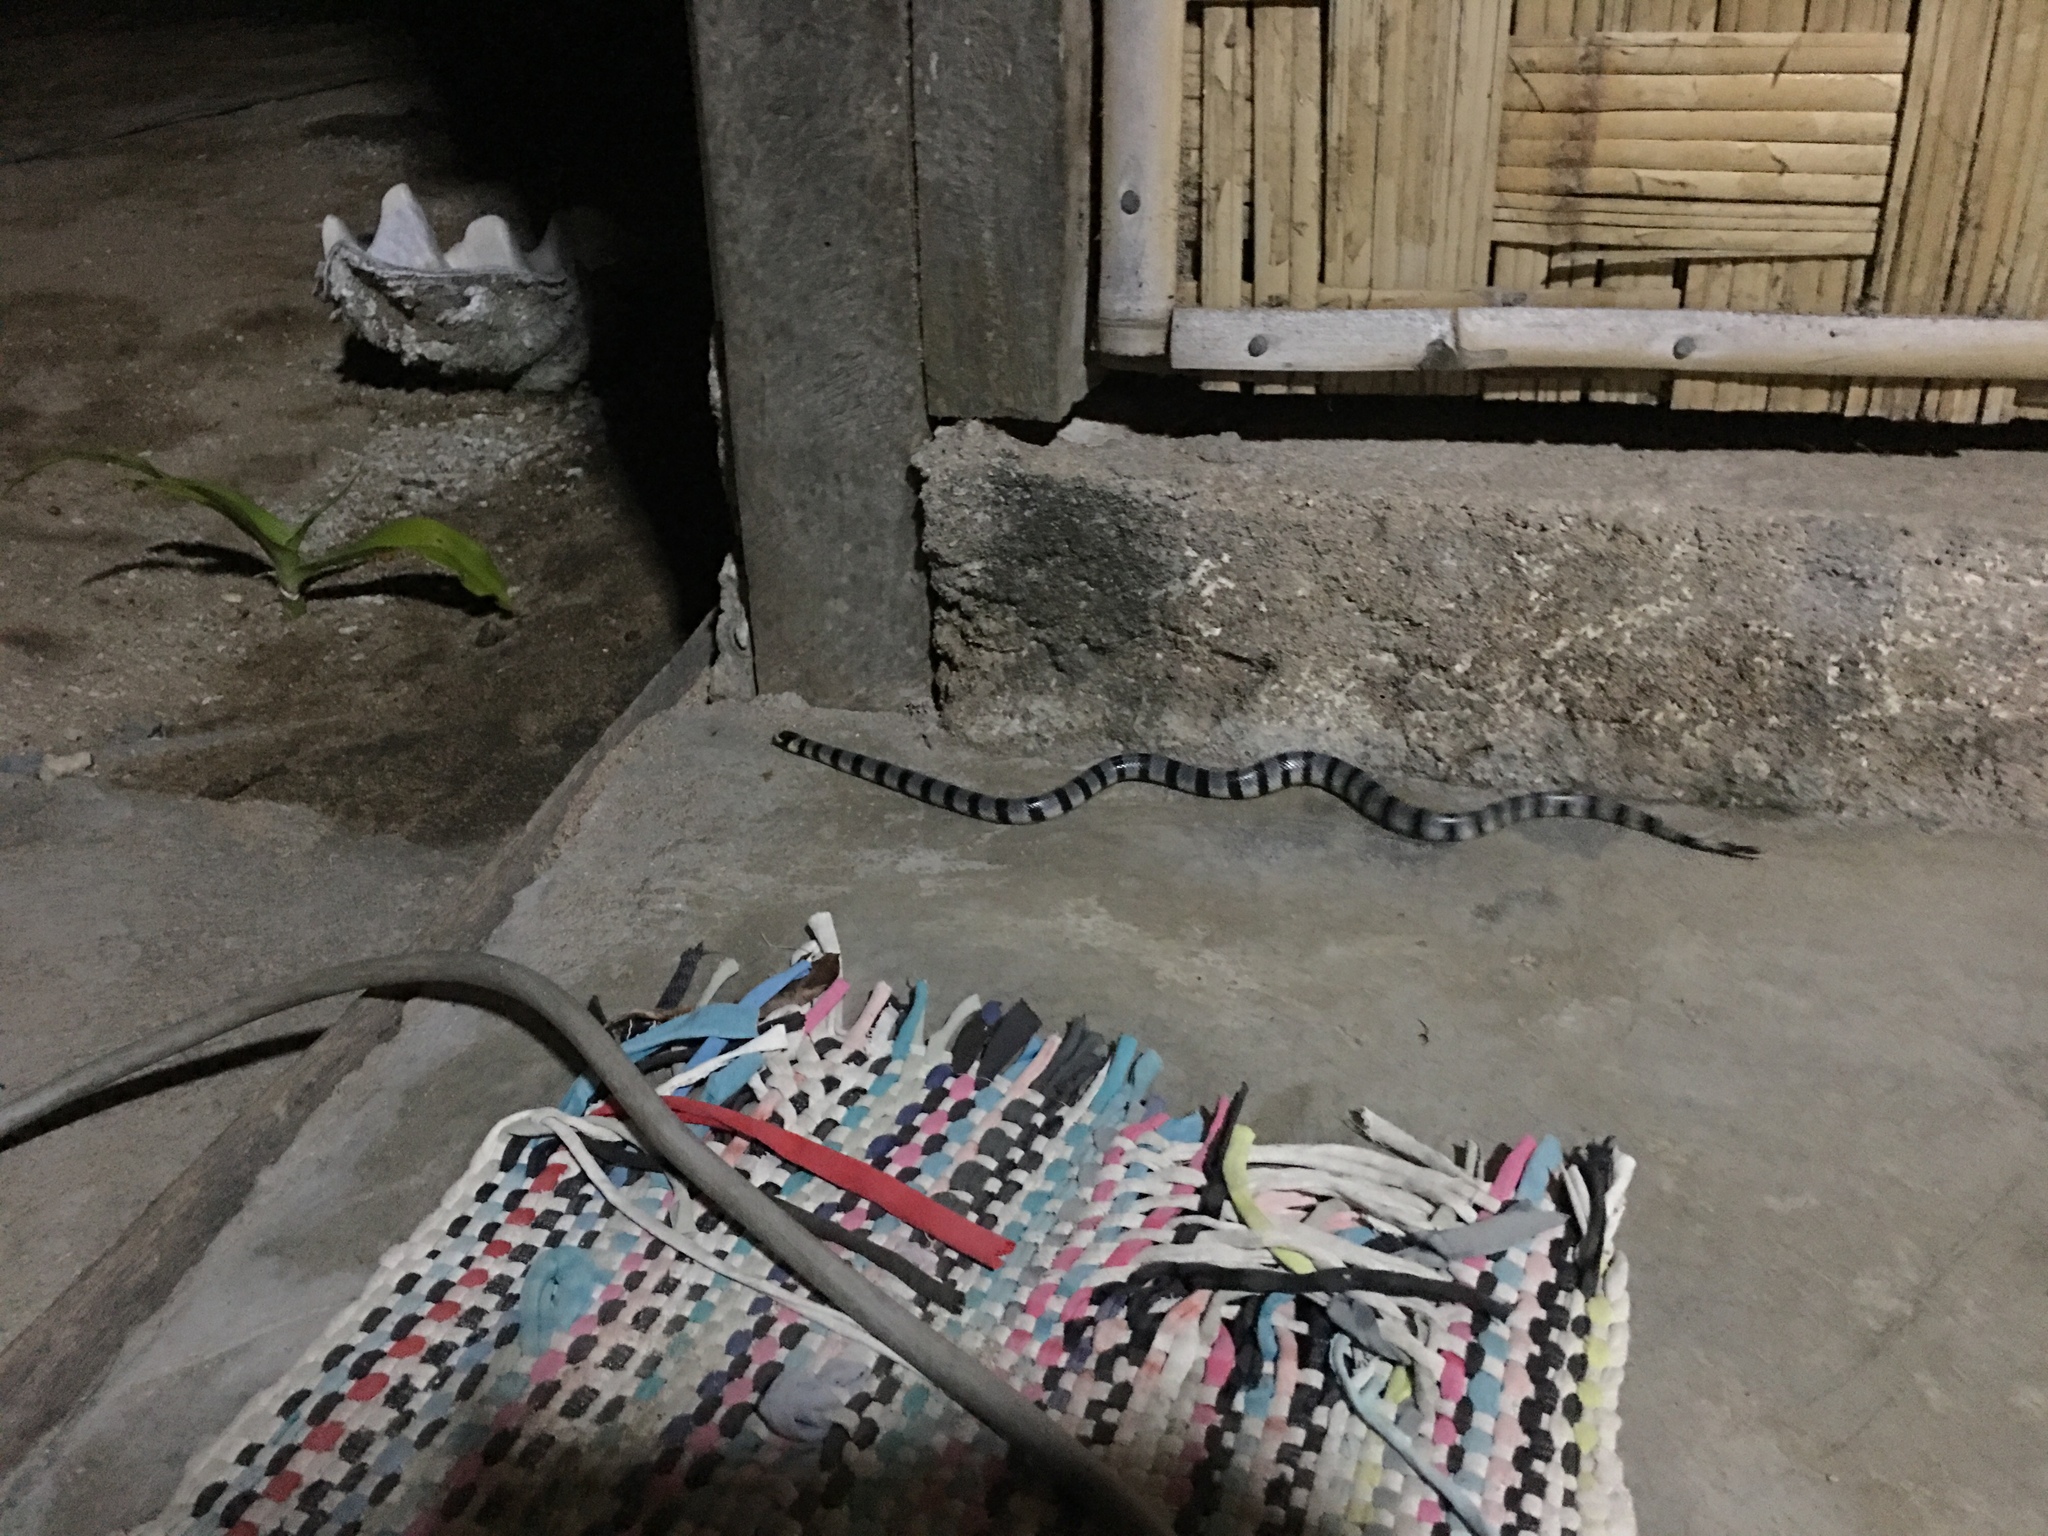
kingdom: Animalia
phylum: Chordata
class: Squamata
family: Elapidae
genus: Laticauda
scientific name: Laticauda colubrina
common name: Yellow-lipped sea krait
